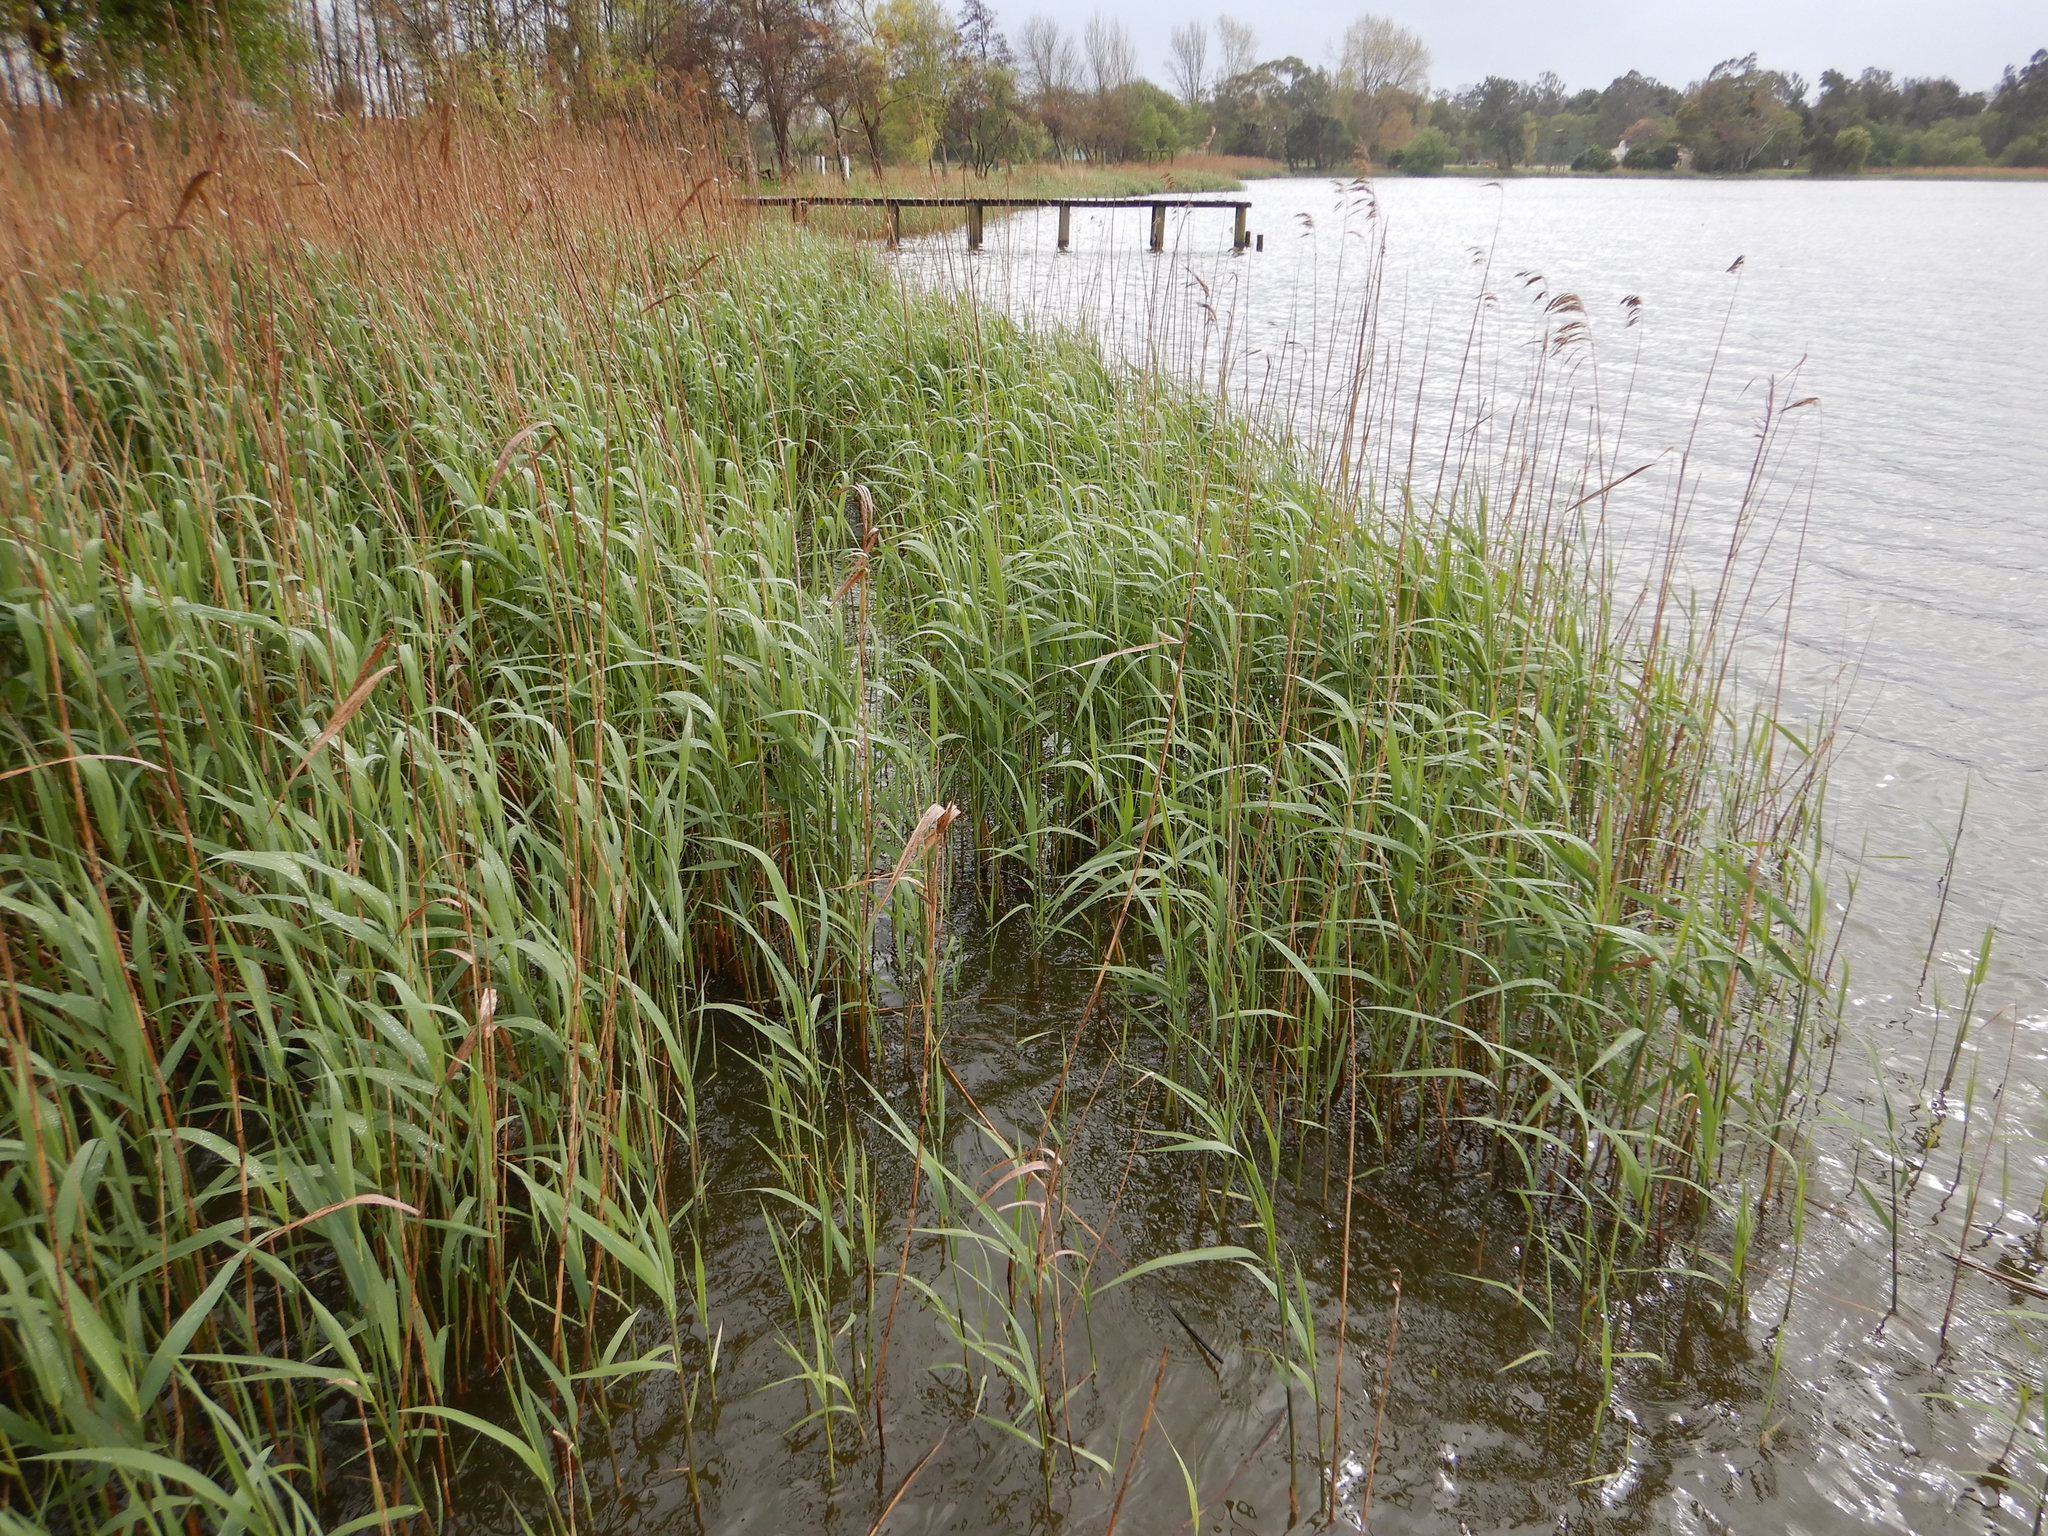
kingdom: Plantae
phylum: Tracheophyta
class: Liliopsida
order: Poales
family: Poaceae
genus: Phragmites
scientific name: Phragmites australis
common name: Common reed
